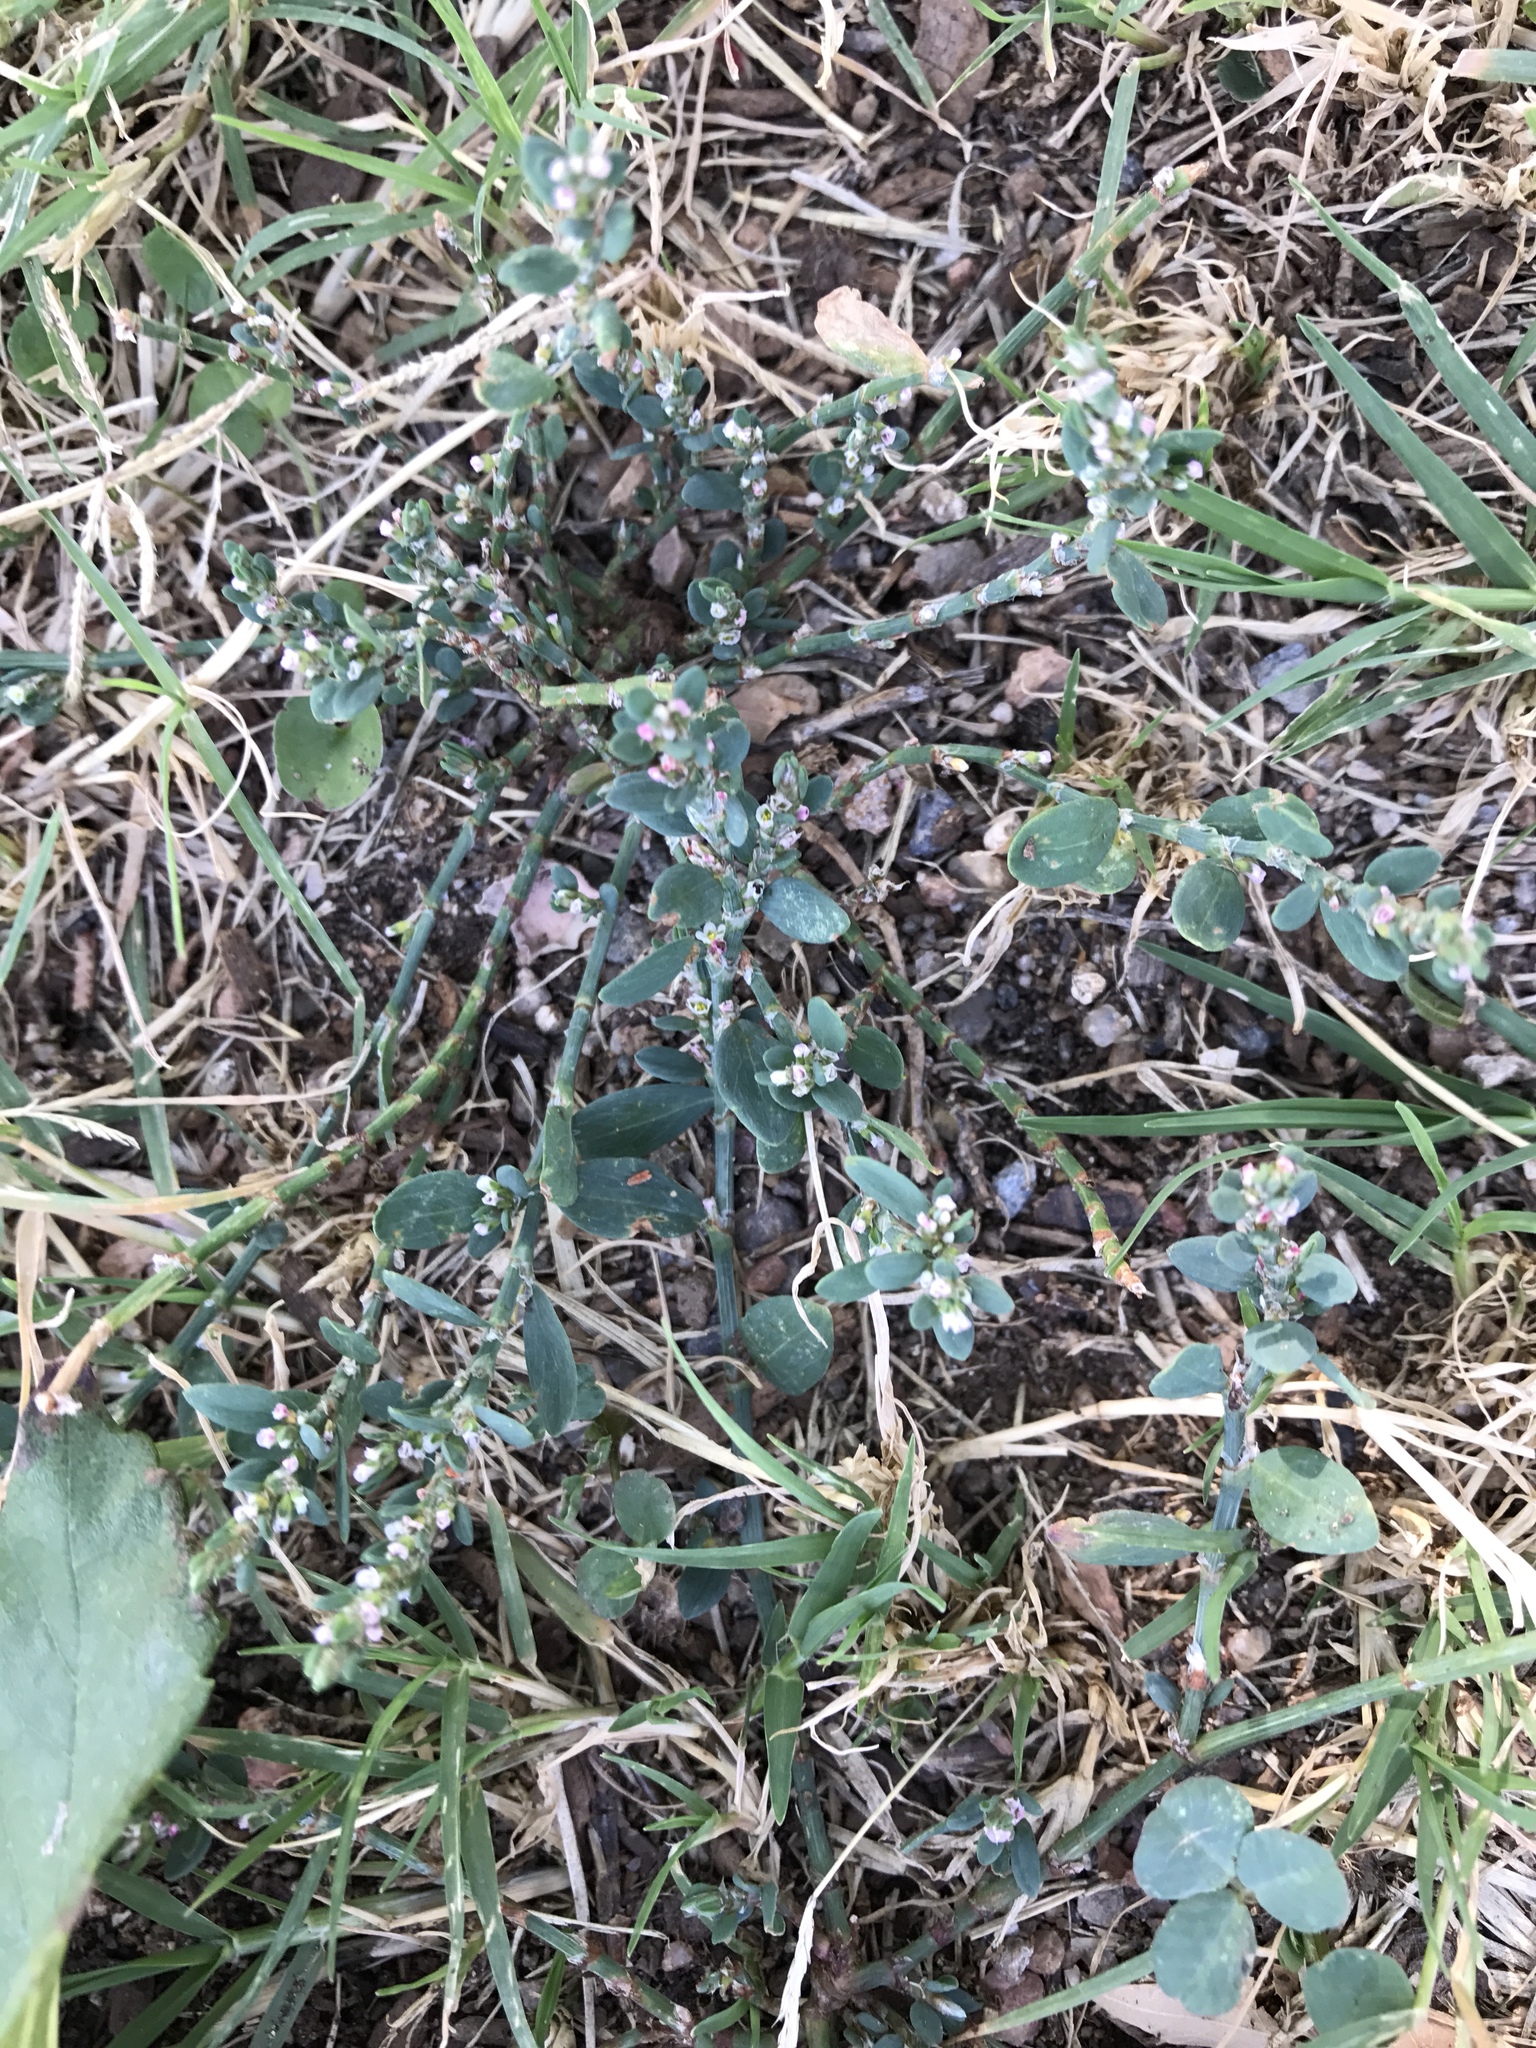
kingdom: Plantae
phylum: Tracheophyta
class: Magnoliopsida
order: Caryophyllales
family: Polygonaceae
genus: Polygonum
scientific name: Polygonum aviculare
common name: Prostrate knotweed
